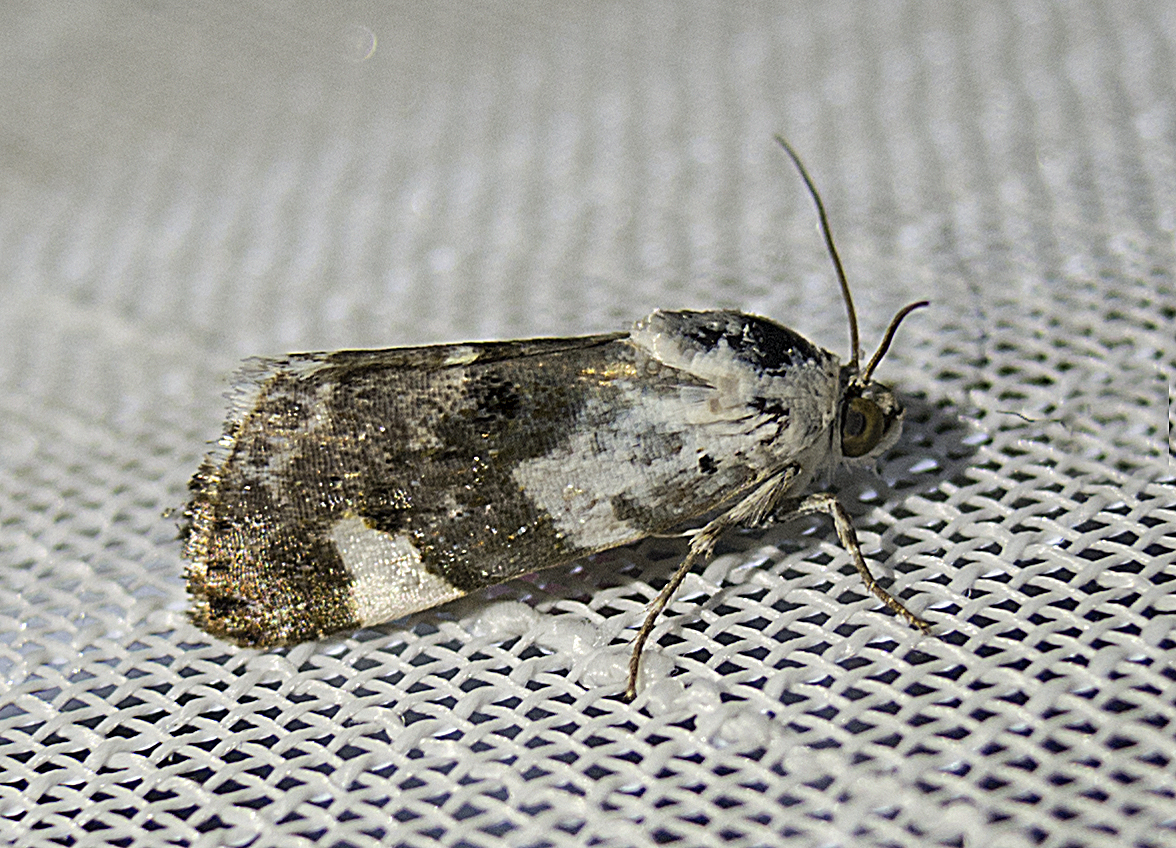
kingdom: Animalia
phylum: Arthropoda
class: Insecta
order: Lepidoptera
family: Noctuidae
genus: Acontia
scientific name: Acontia lucida
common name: Pale shoulder
